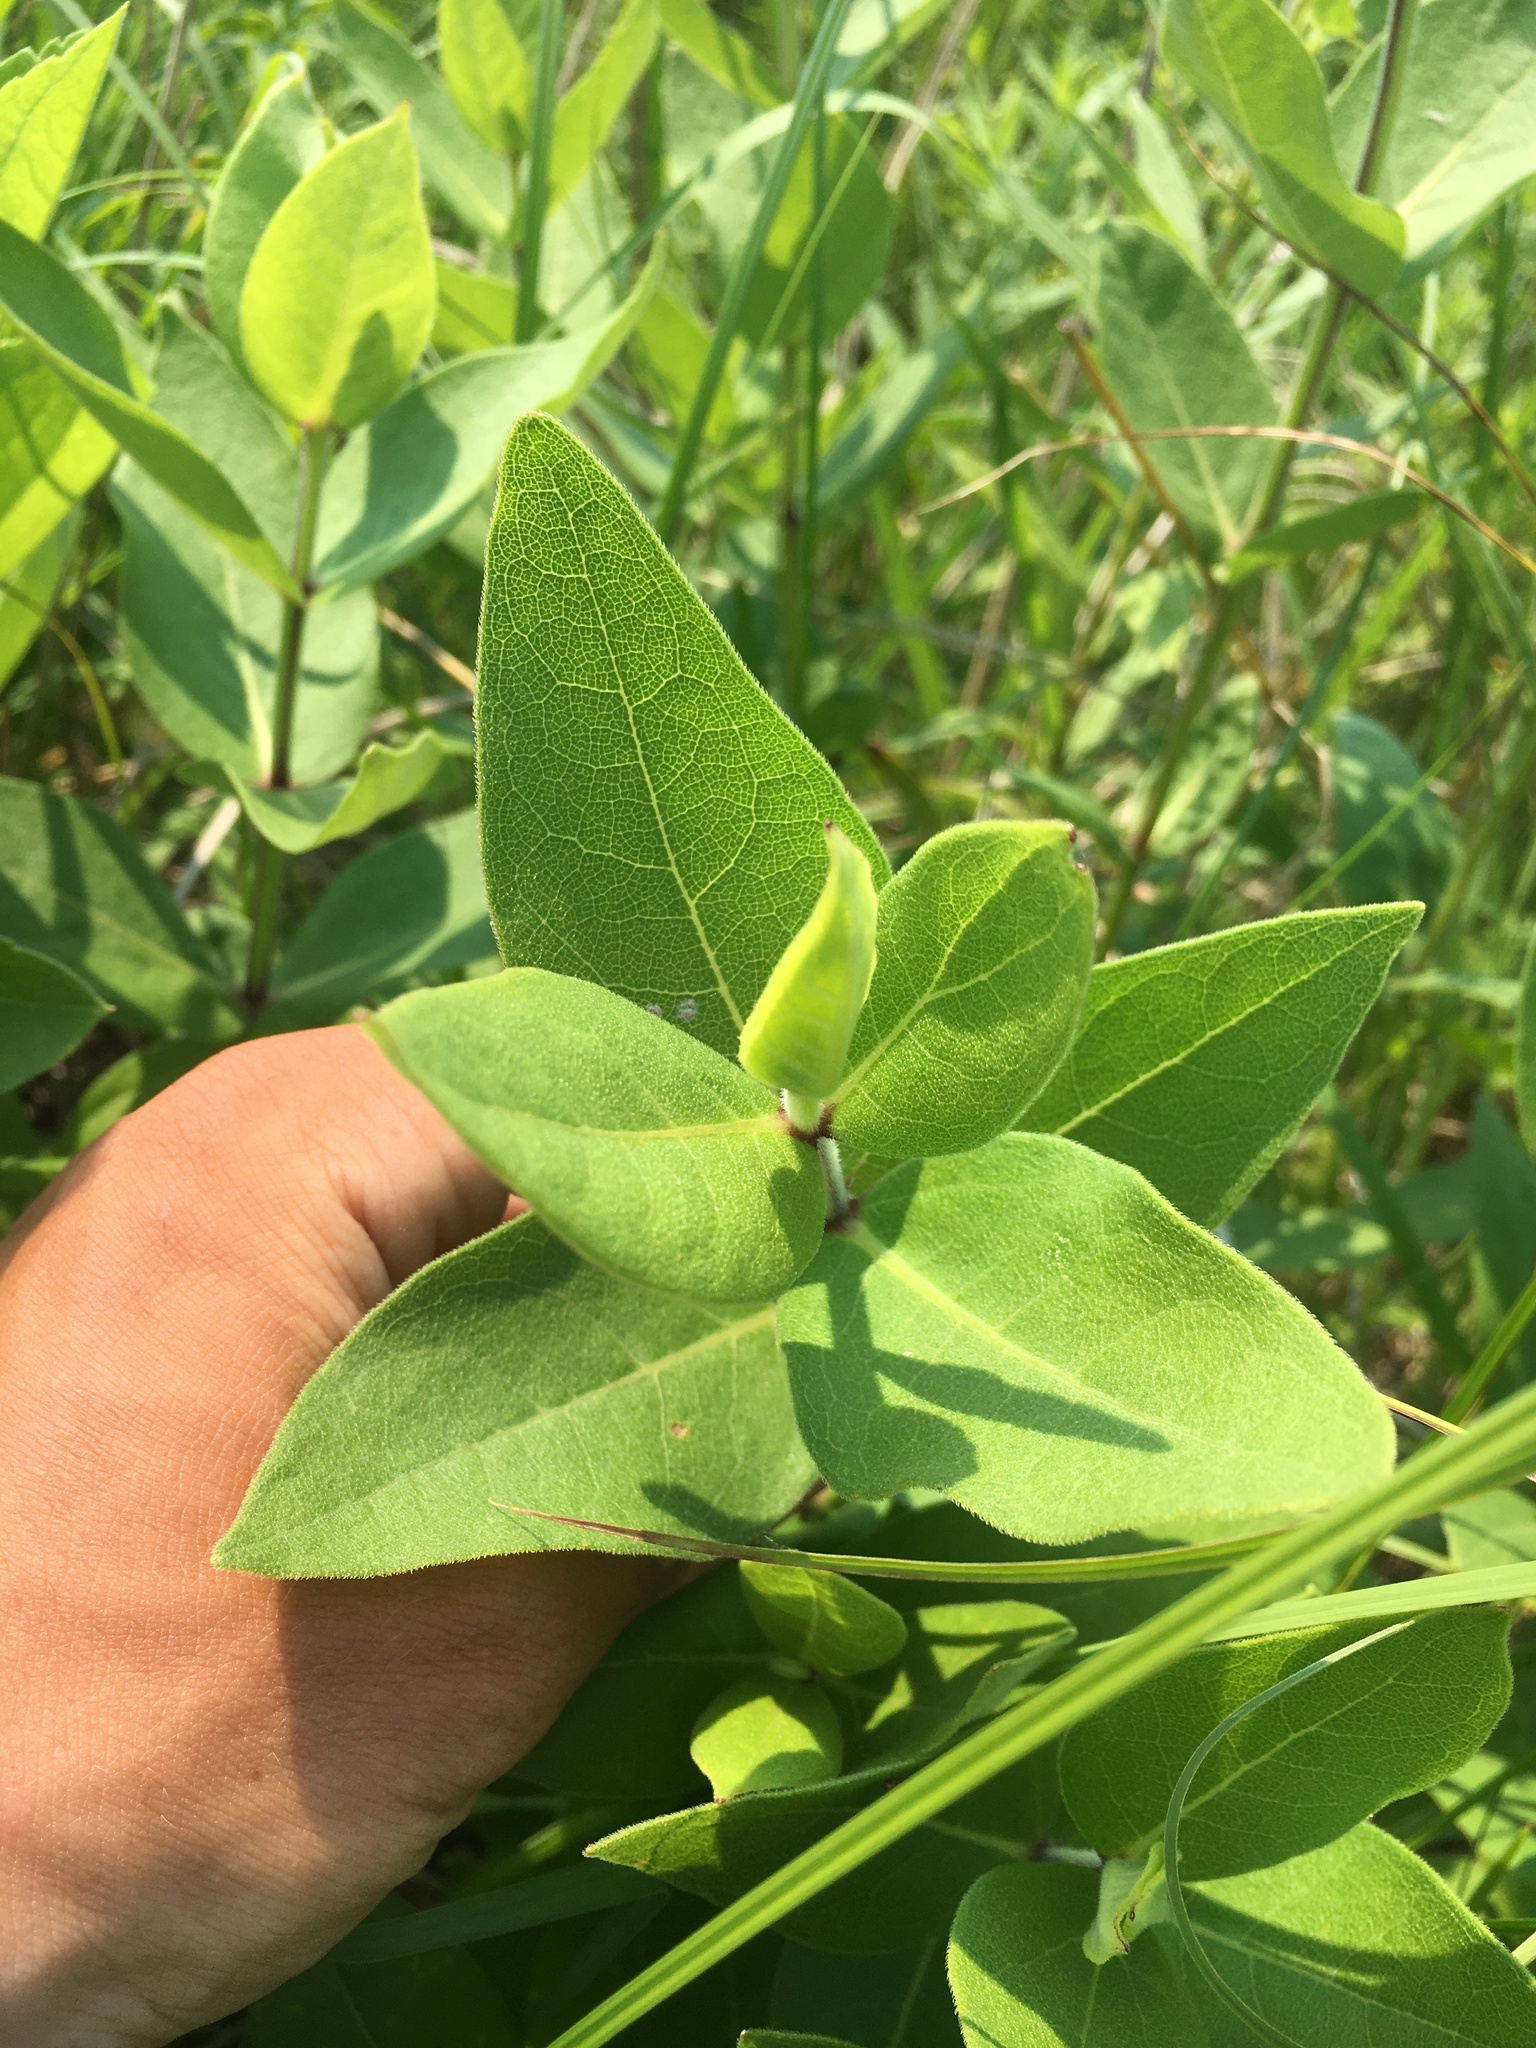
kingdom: Plantae
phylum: Tracheophyta
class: Magnoliopsida
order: Asterales
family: Asteraceae
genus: Silphium
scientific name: Silphium integrifolium
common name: Whole-leaf rosinweed
